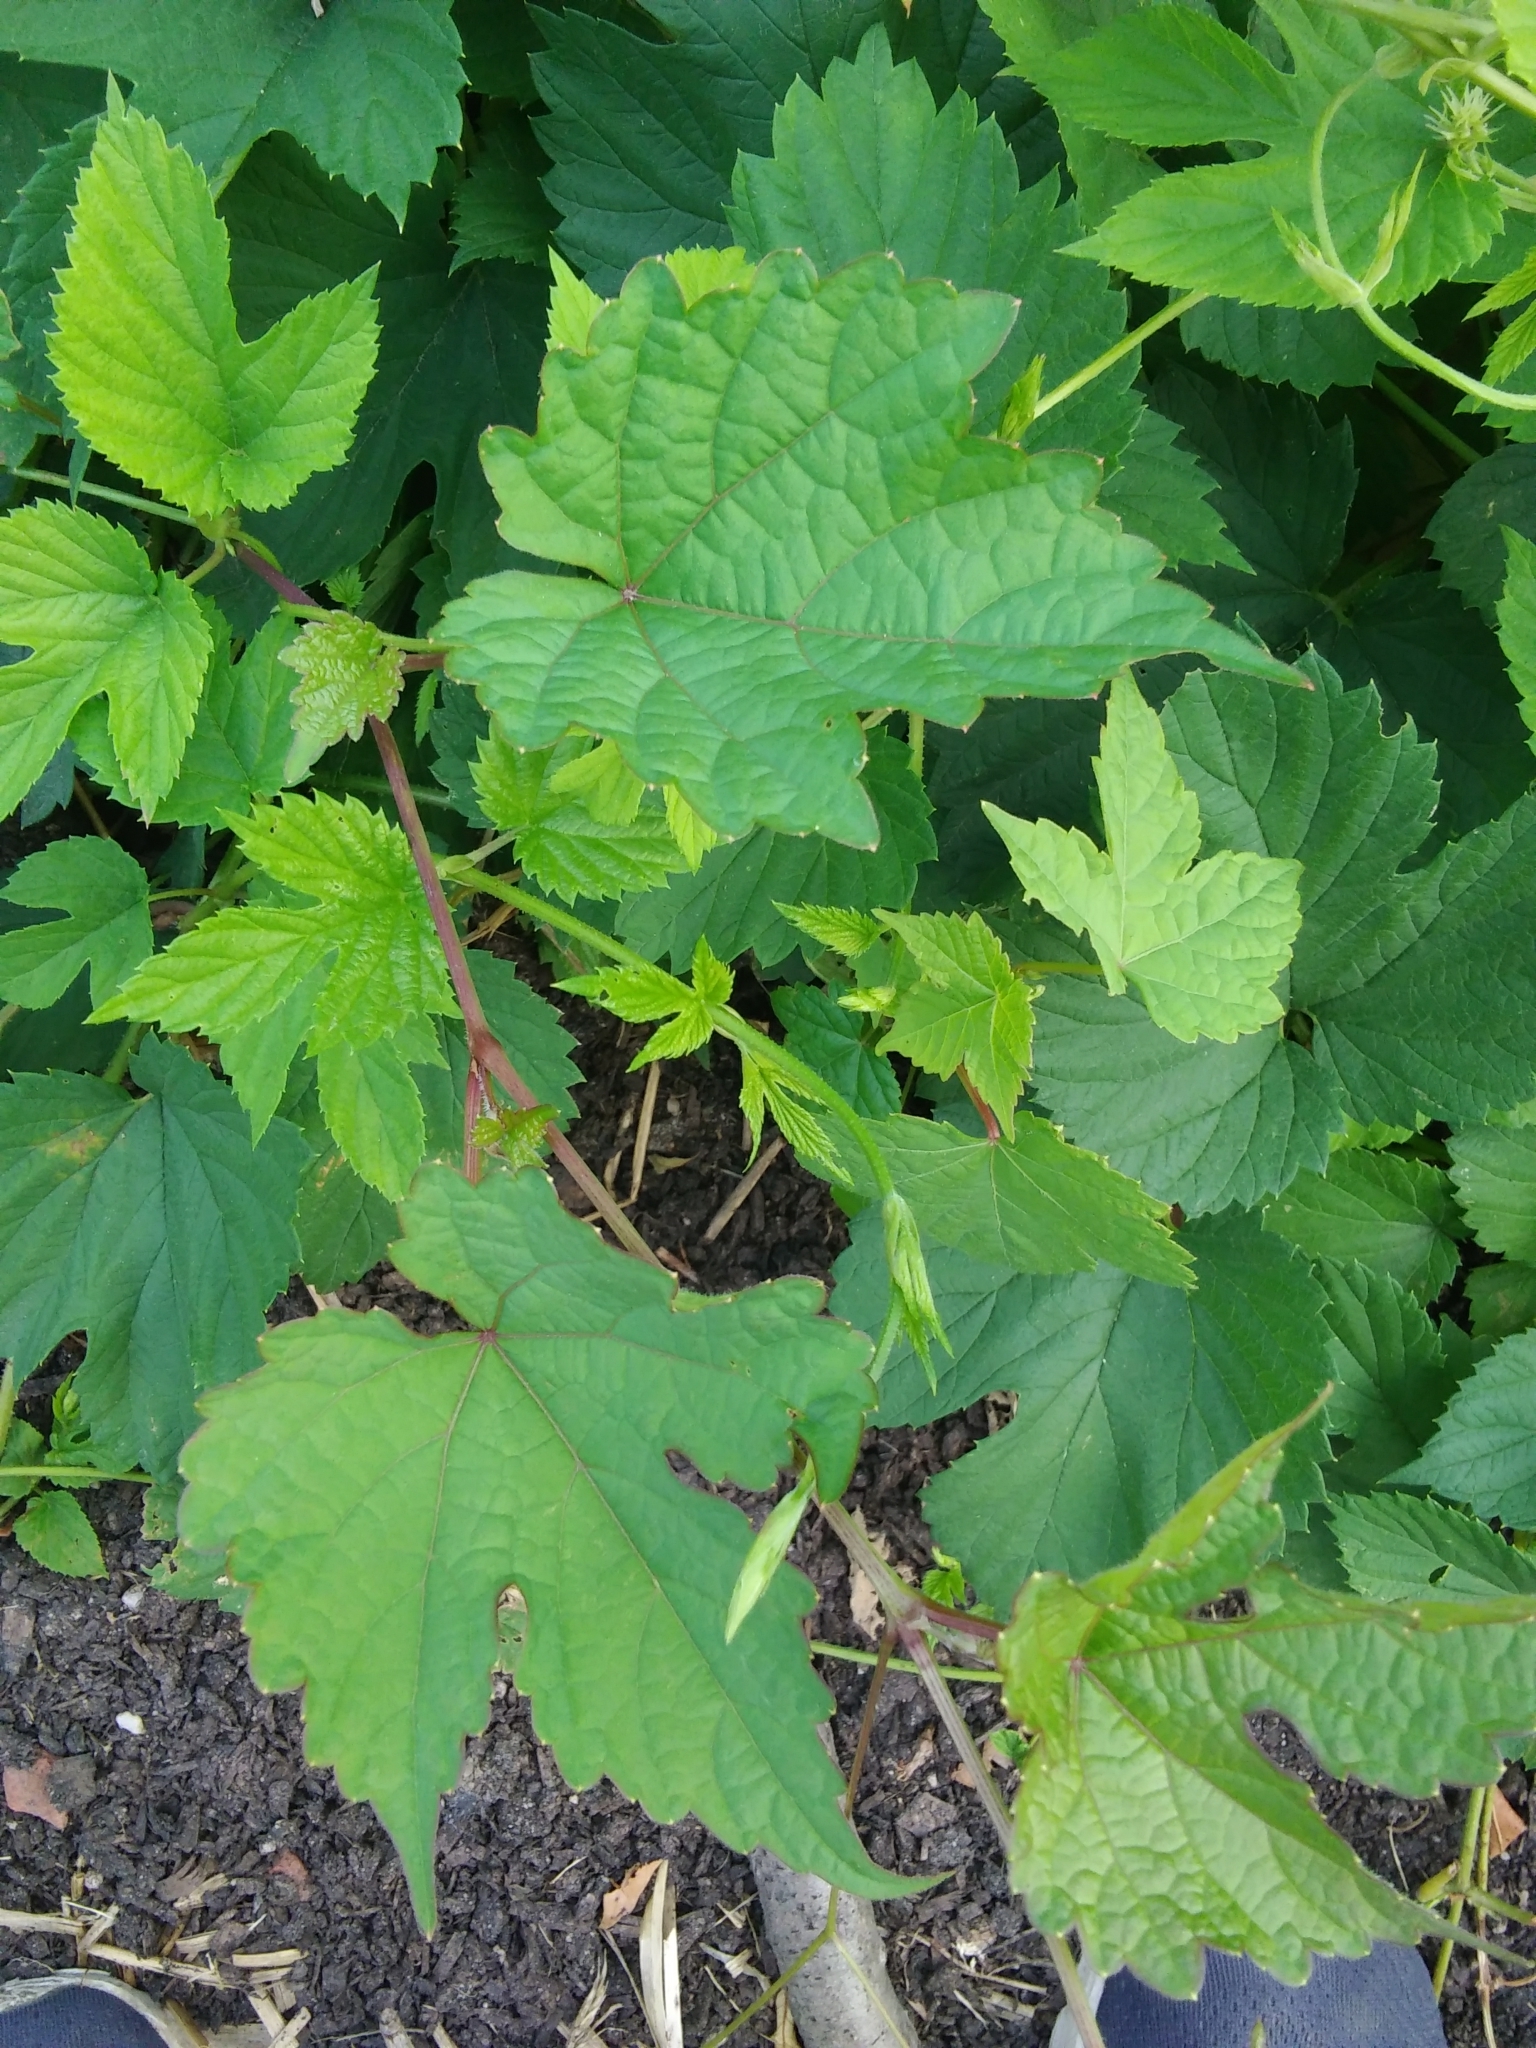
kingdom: Plantae
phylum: Tracheophyta
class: Magnoliopsida
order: Vitales
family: Vitaceae
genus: Ampelopsis
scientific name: Ampelopsis glandulosa
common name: Amur peppervine
